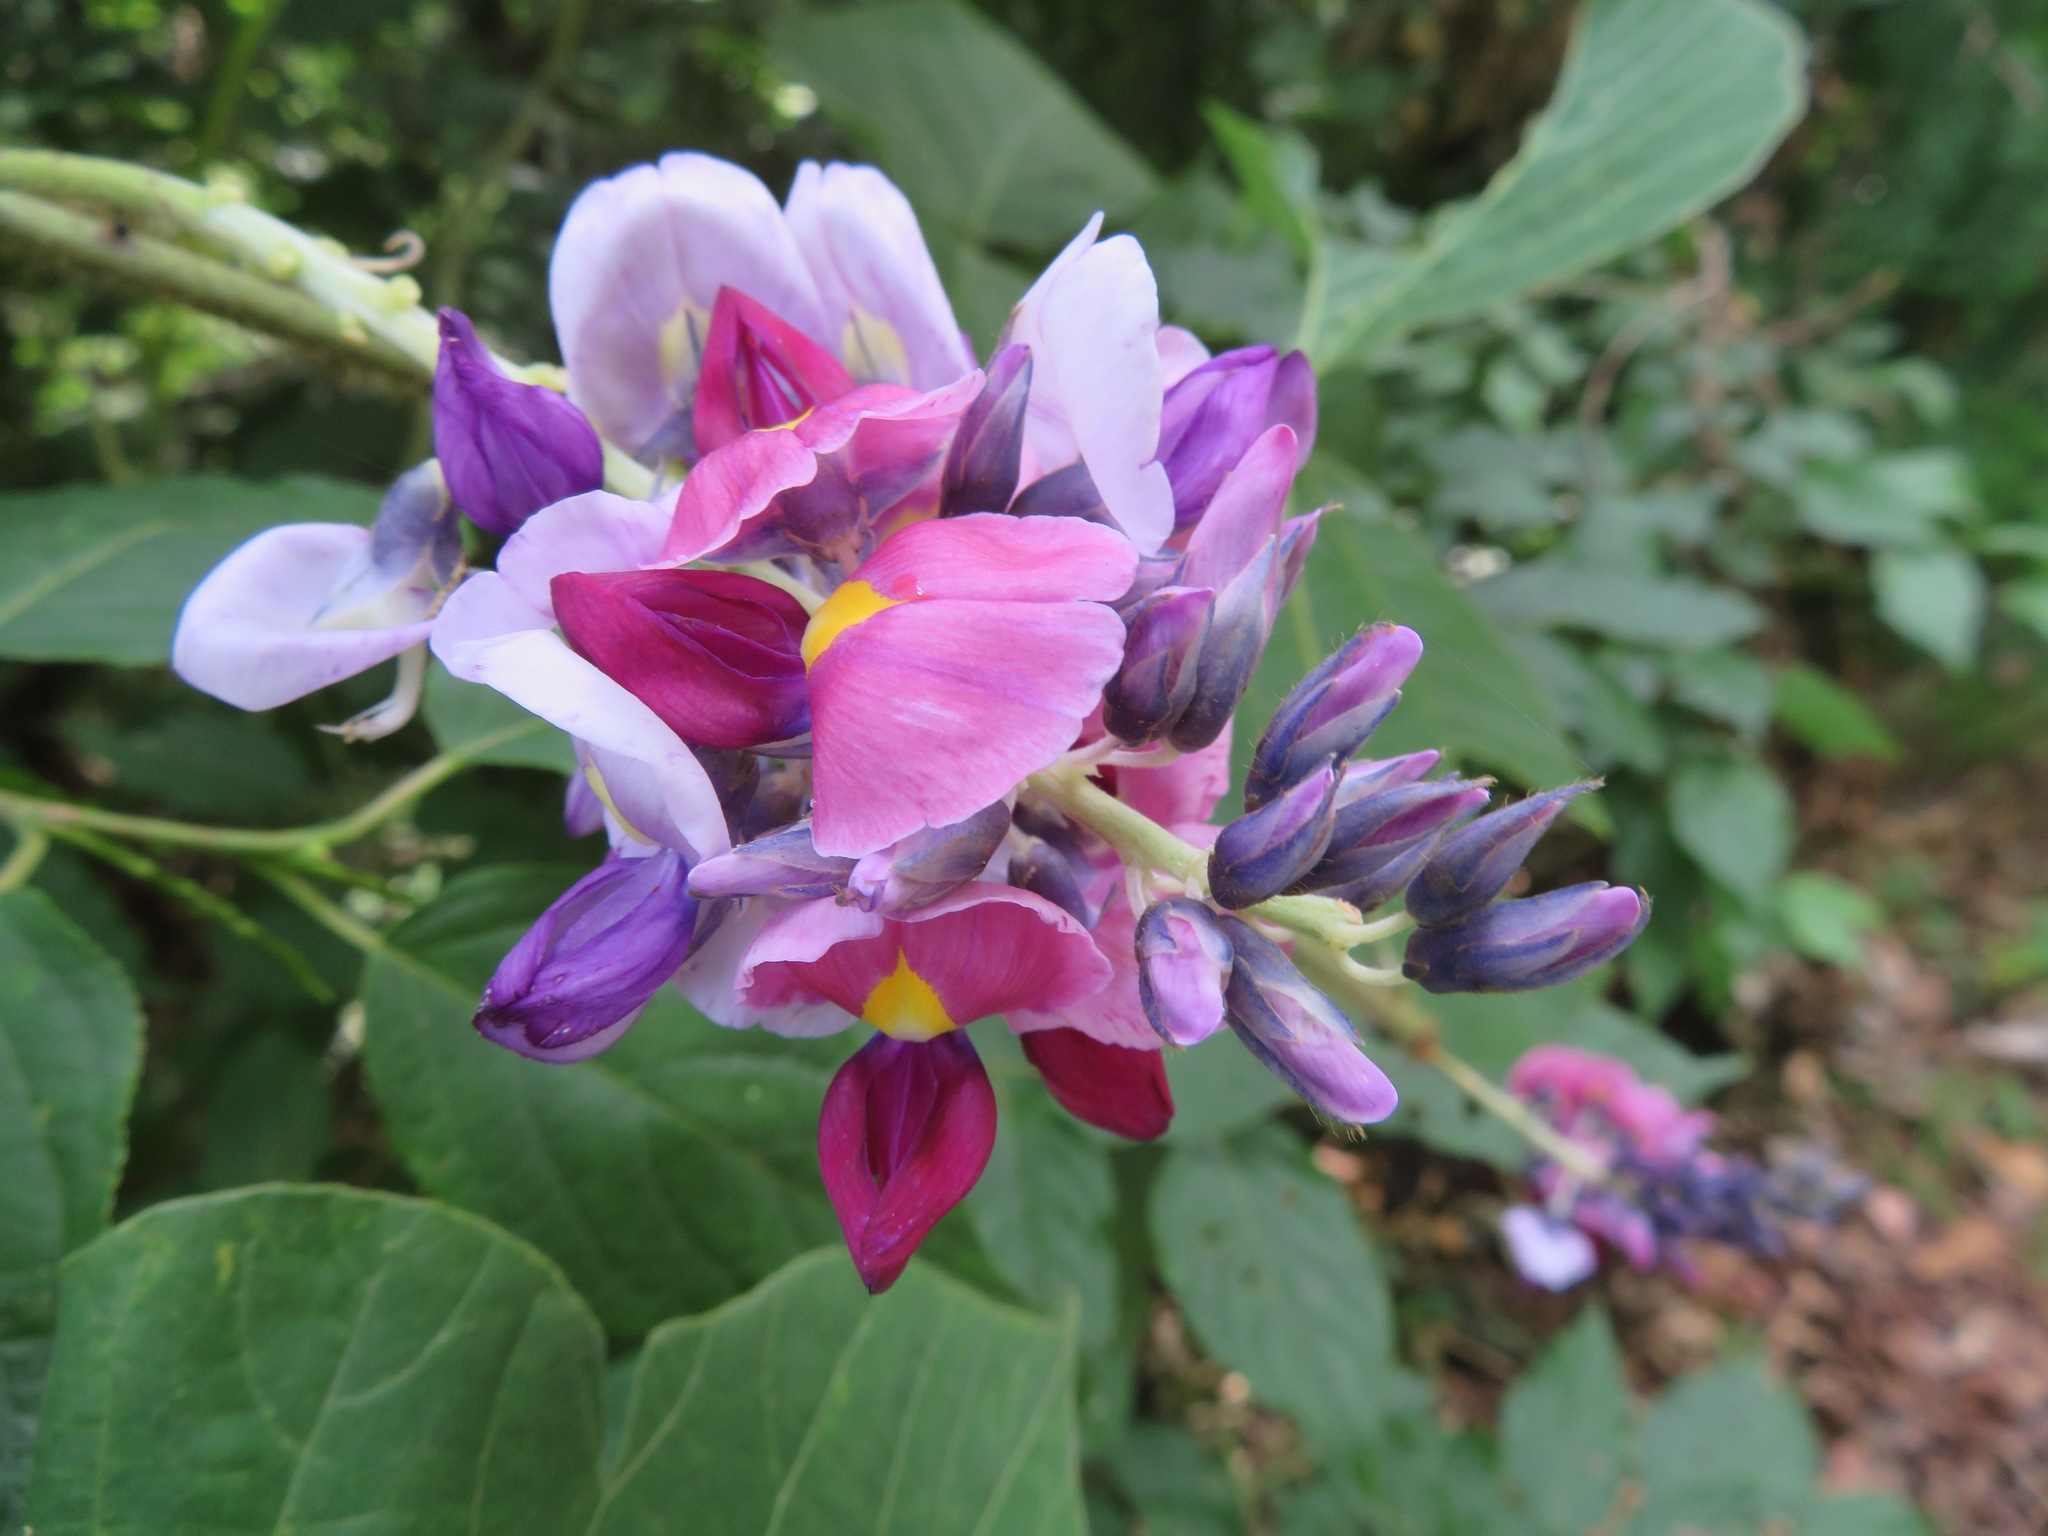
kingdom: Plantae
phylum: Tracheophyta
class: Magnoliopsida
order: Fabales
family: Fabaceae
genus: Pueraria
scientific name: Pueraria montana
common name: Kudzu
